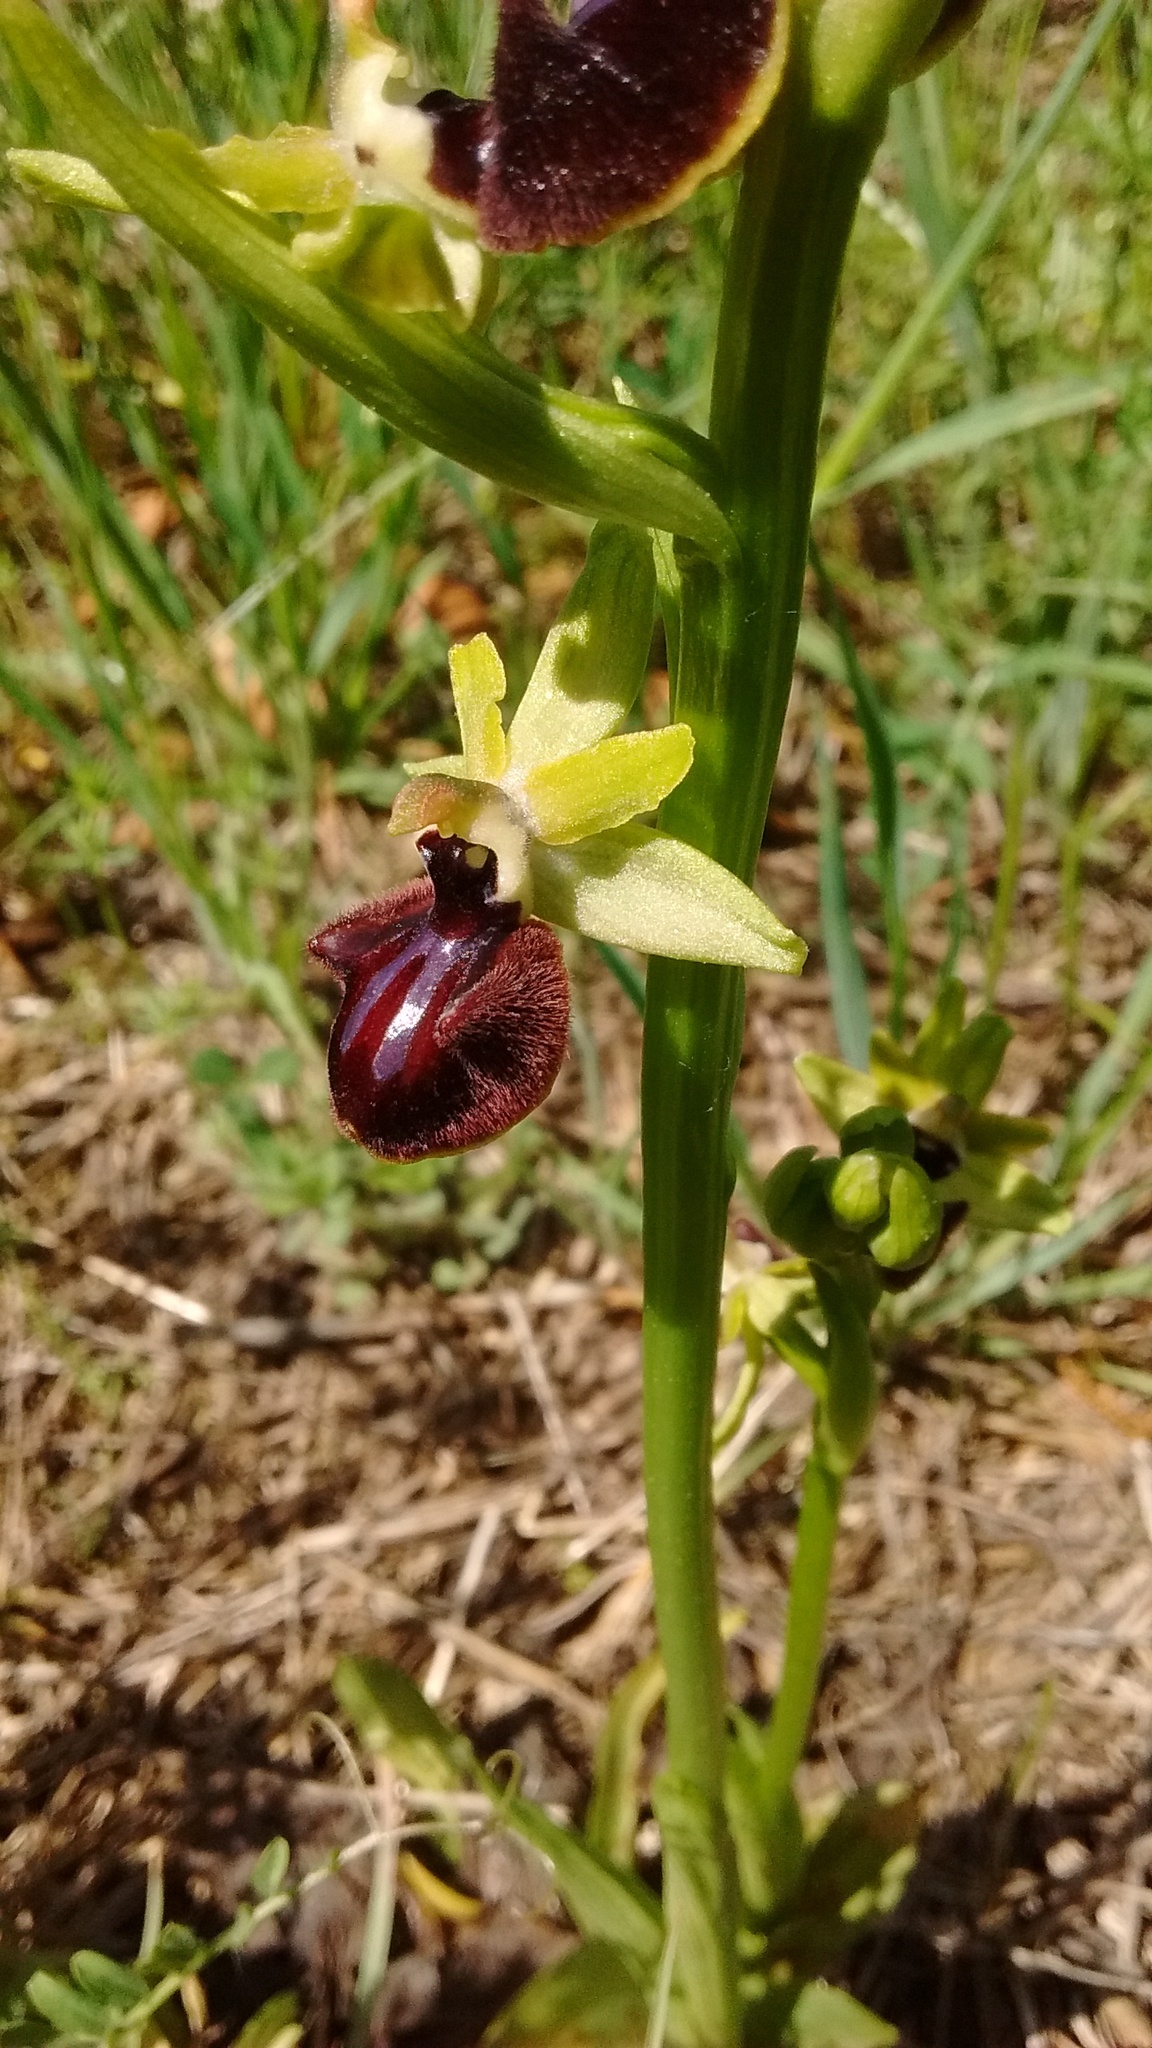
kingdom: Plantae
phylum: Tracheophyta
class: Liliopsida
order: Asparagales
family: Orchidaceae
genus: Ophrys
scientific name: Ophrys sphegodes
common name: Early spider-orchid
